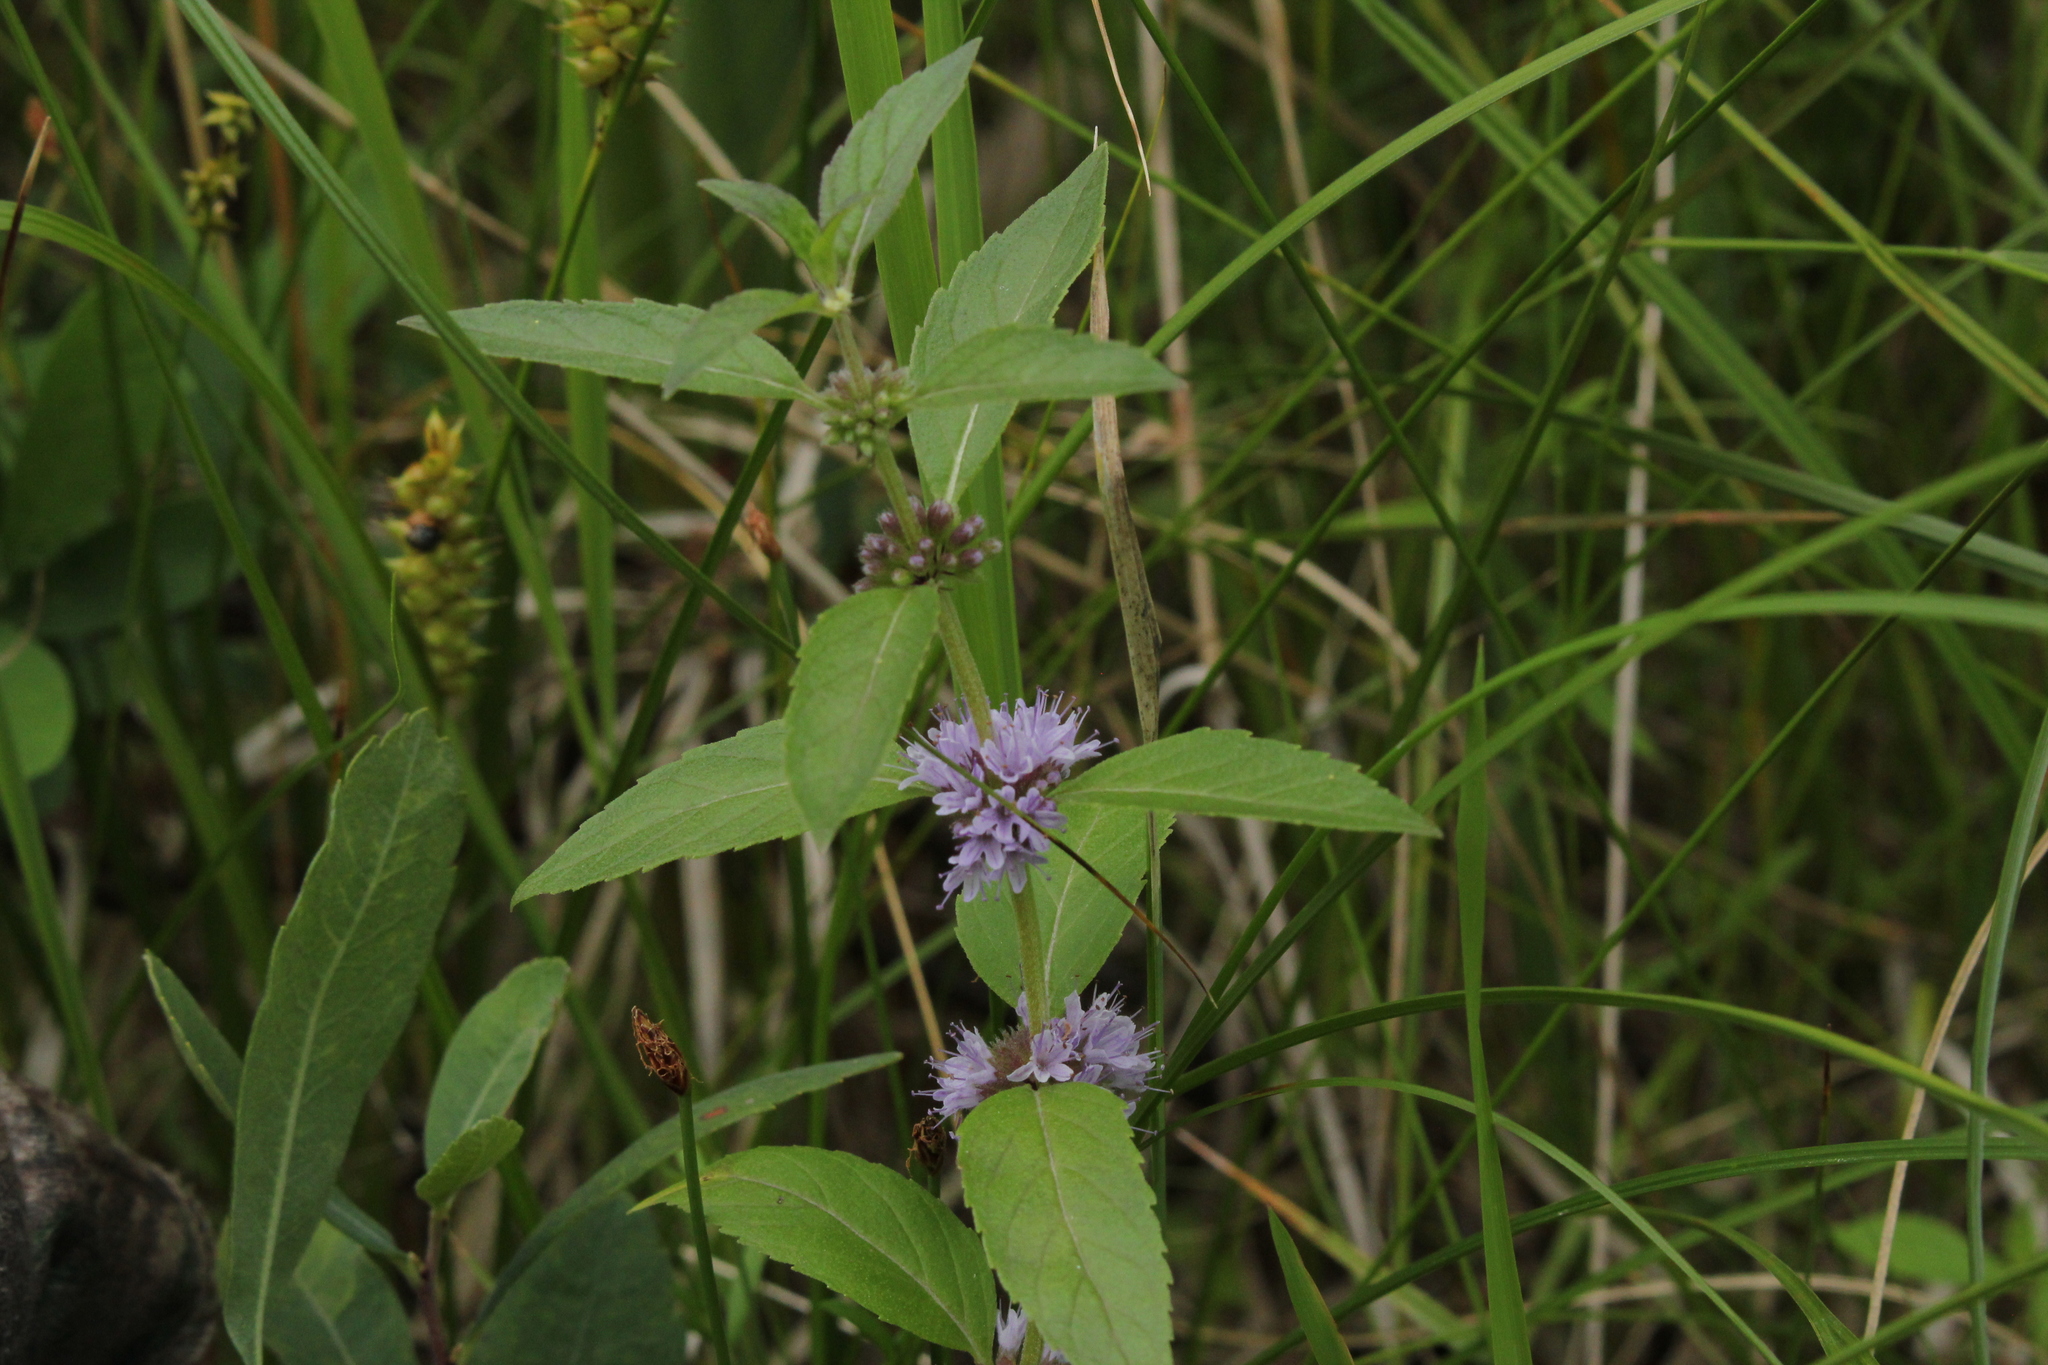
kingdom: Plantae
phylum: Tracheophyta
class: Magnoliopsida
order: Lamiales
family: Lamiaceae
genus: Mentha
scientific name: Mentha canadensis
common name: American corn mint
